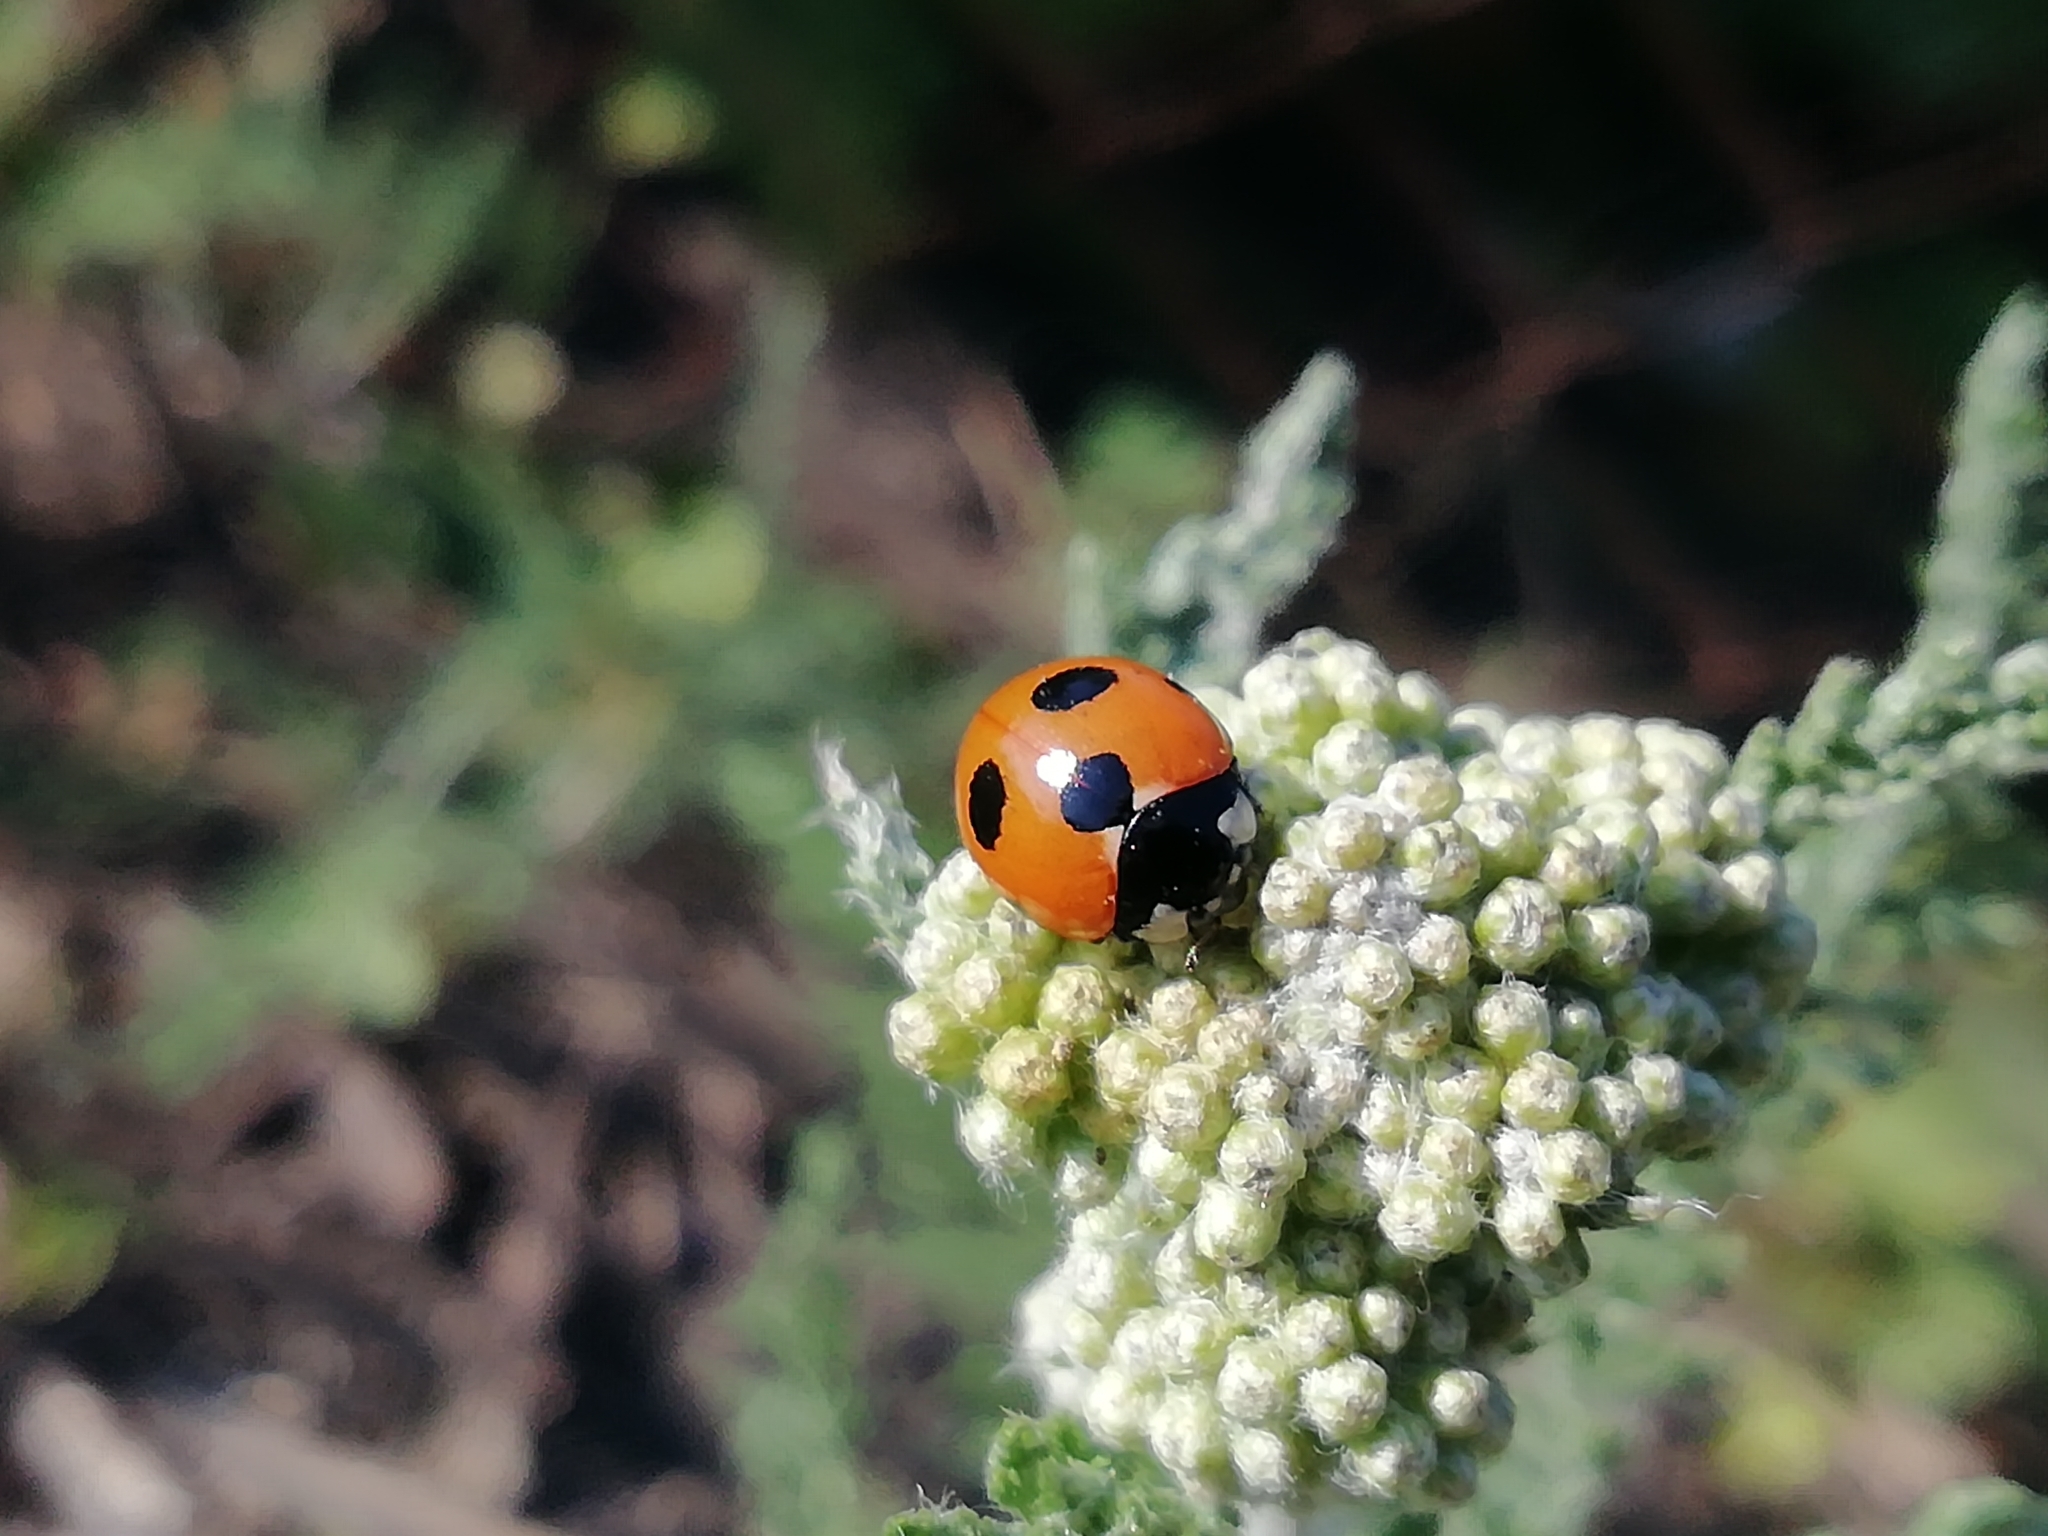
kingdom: Animalia
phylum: Arthropoda
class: Insecta
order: Coleoptera
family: Coccinellidae
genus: Coccinella
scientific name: Coccinella magnifica
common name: Scarce 7-spot ladybird
